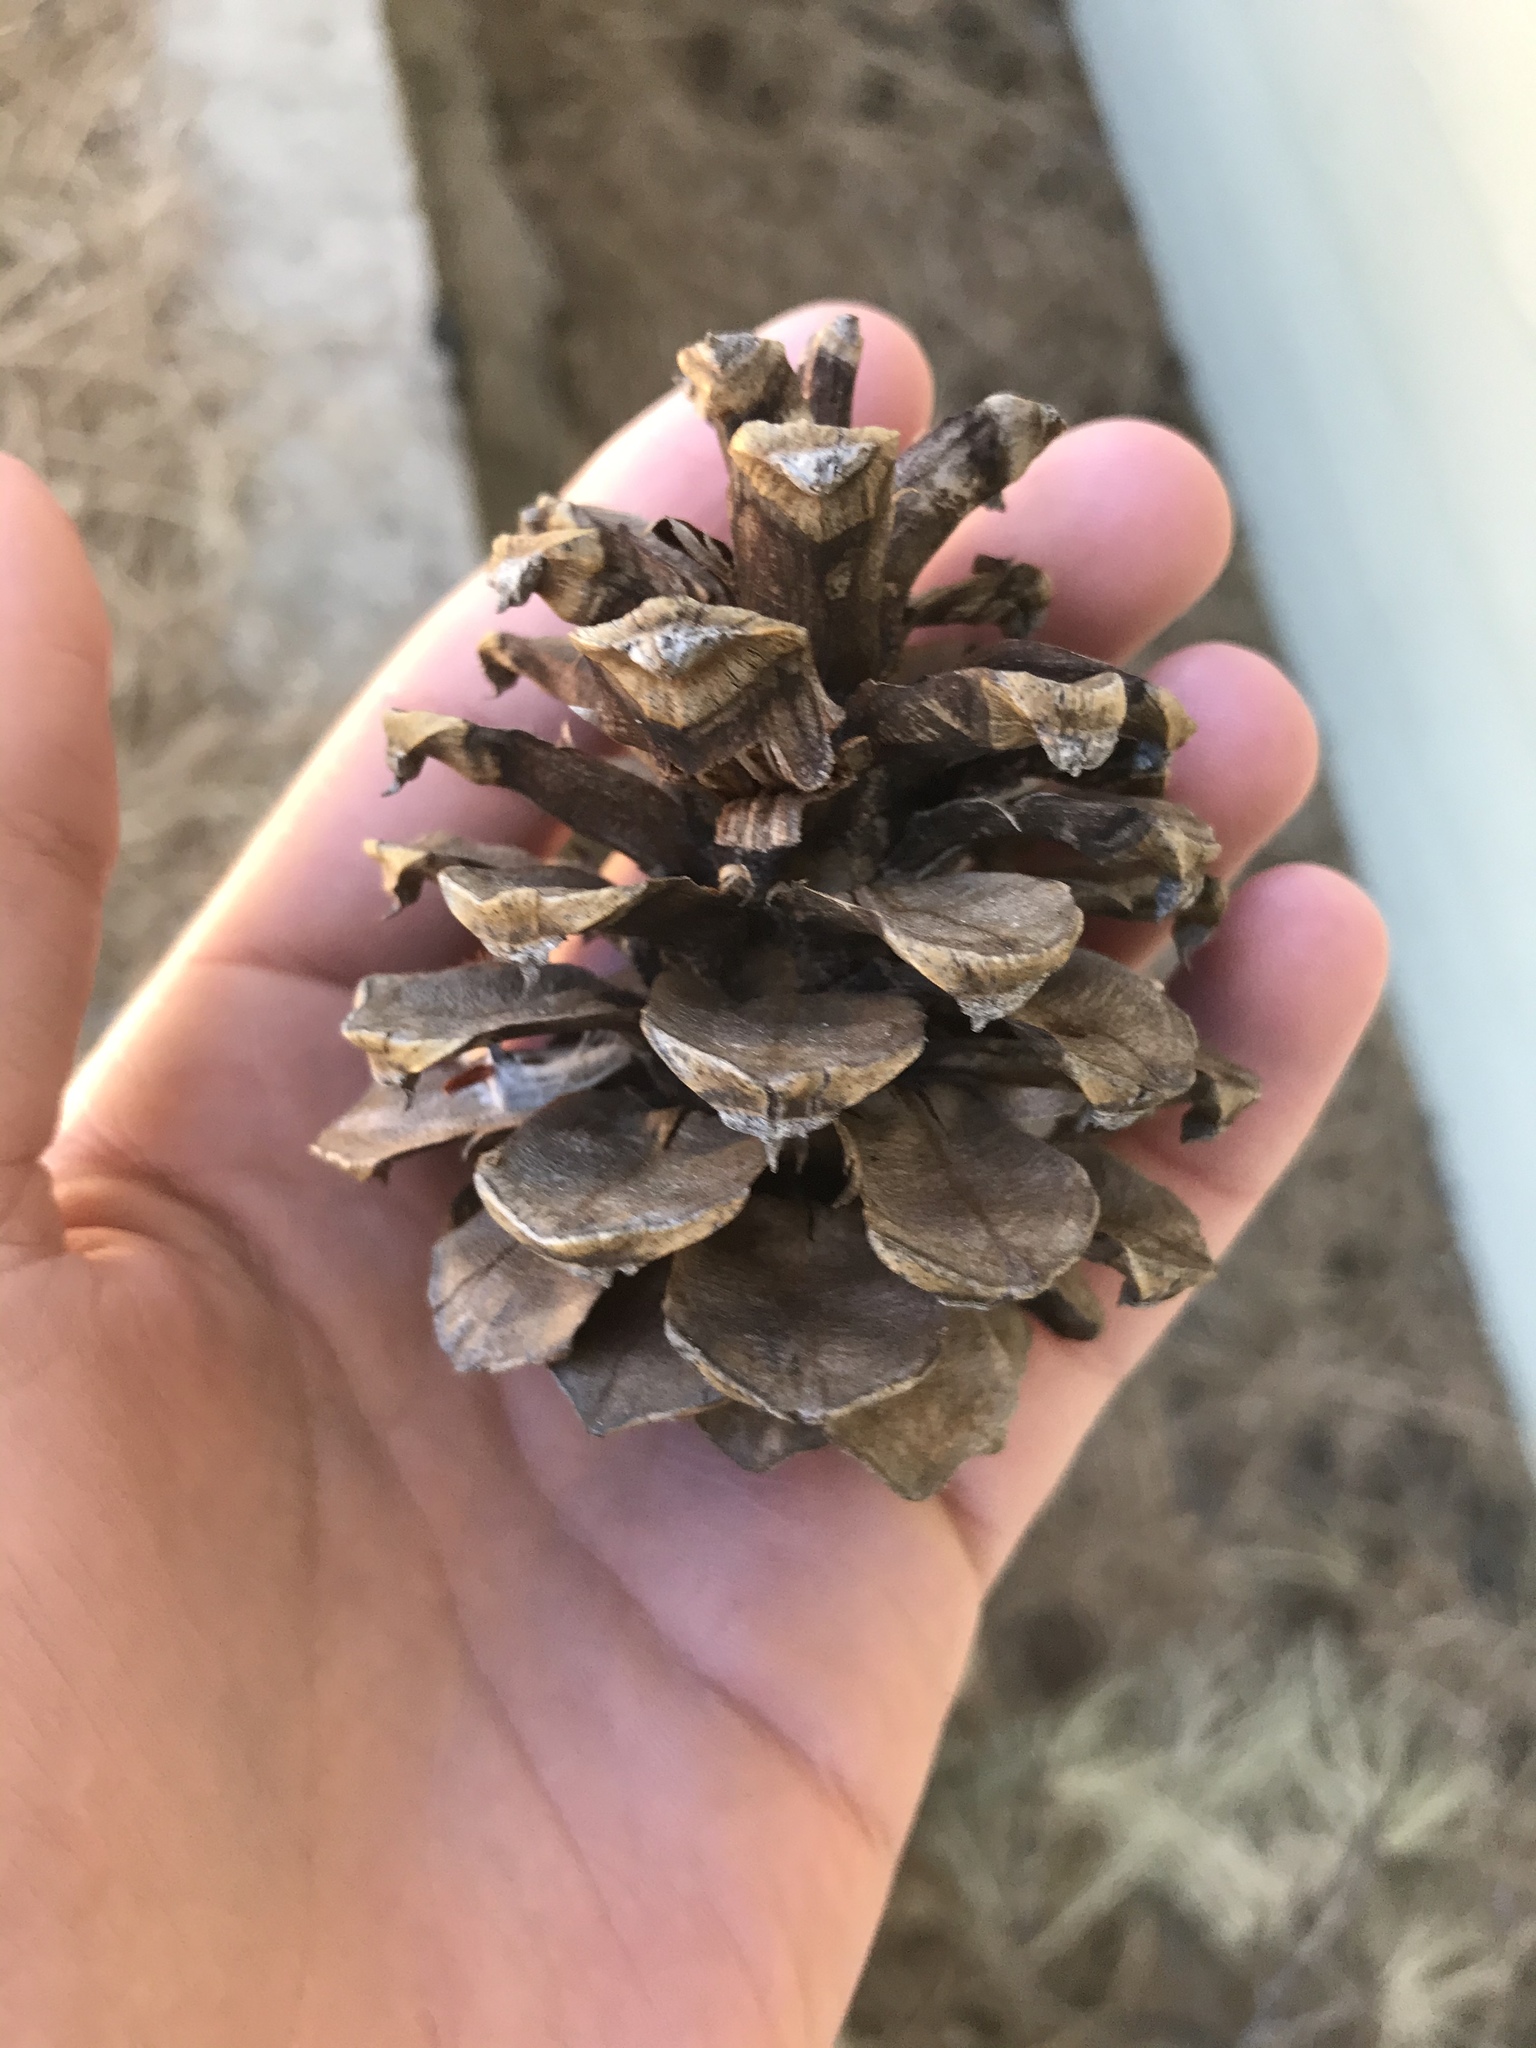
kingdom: Plantae
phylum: Tracheophyta
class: Pinopsida
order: Pinales
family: Pinaceae
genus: Pinus
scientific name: Pinus ponderosa
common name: Western yellow-pine
